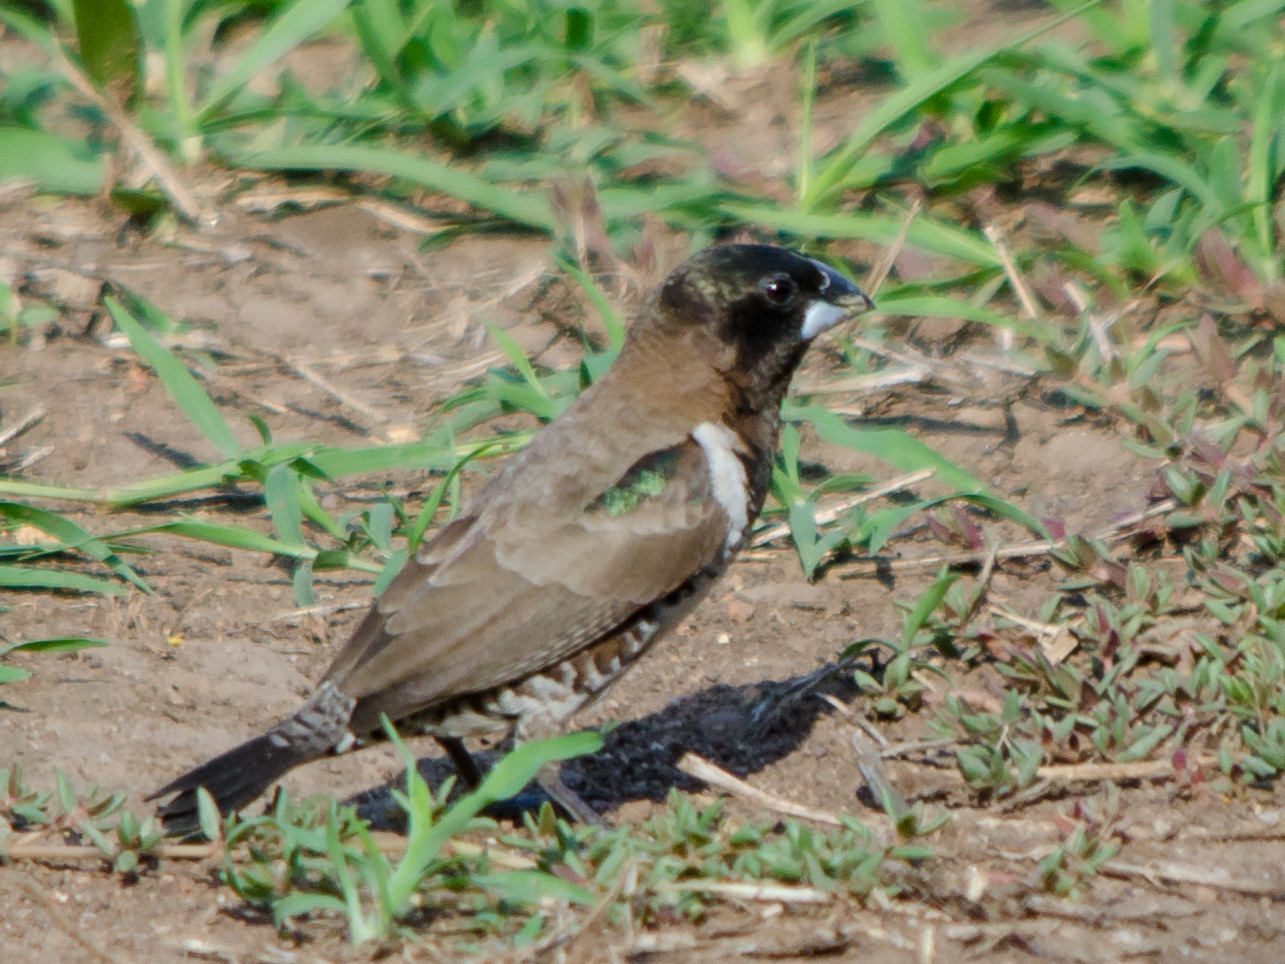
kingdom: Animalia
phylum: Chordata
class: Aves
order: Passeriformes
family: Estrildidae
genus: Lonchura
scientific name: Lonchura cucullata
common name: Bronze mannikin
